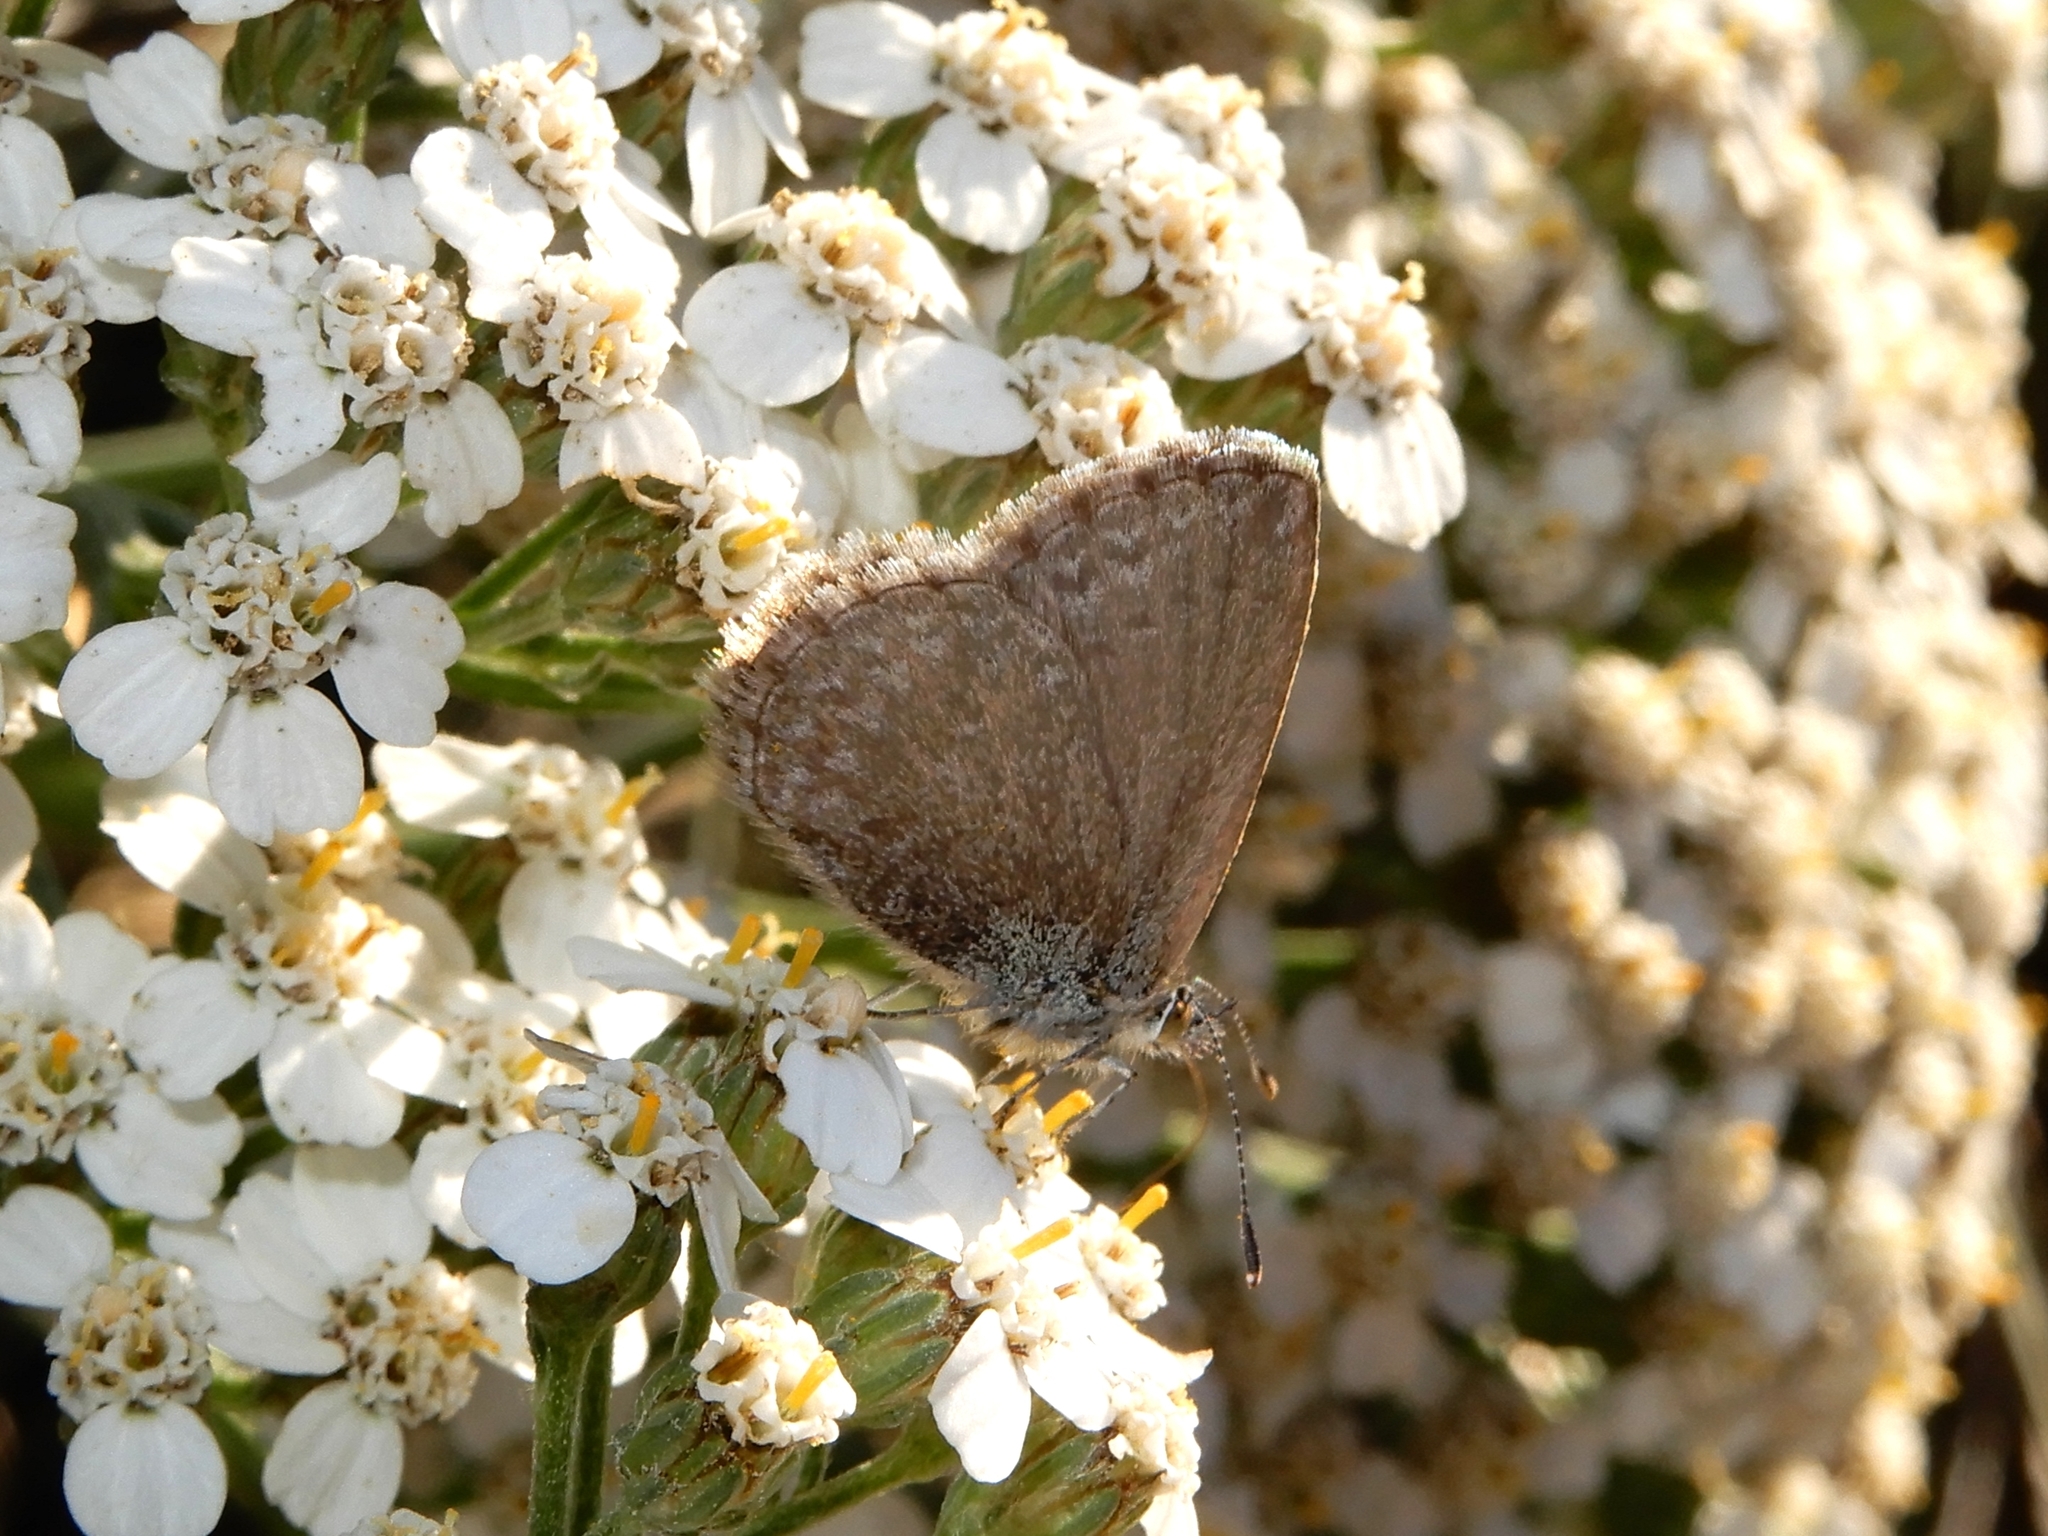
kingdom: Animalia
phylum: Arthropoda
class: Insecta
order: Lepidoptera
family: Lycaenidae
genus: Zizina
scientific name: Zizina labradus
